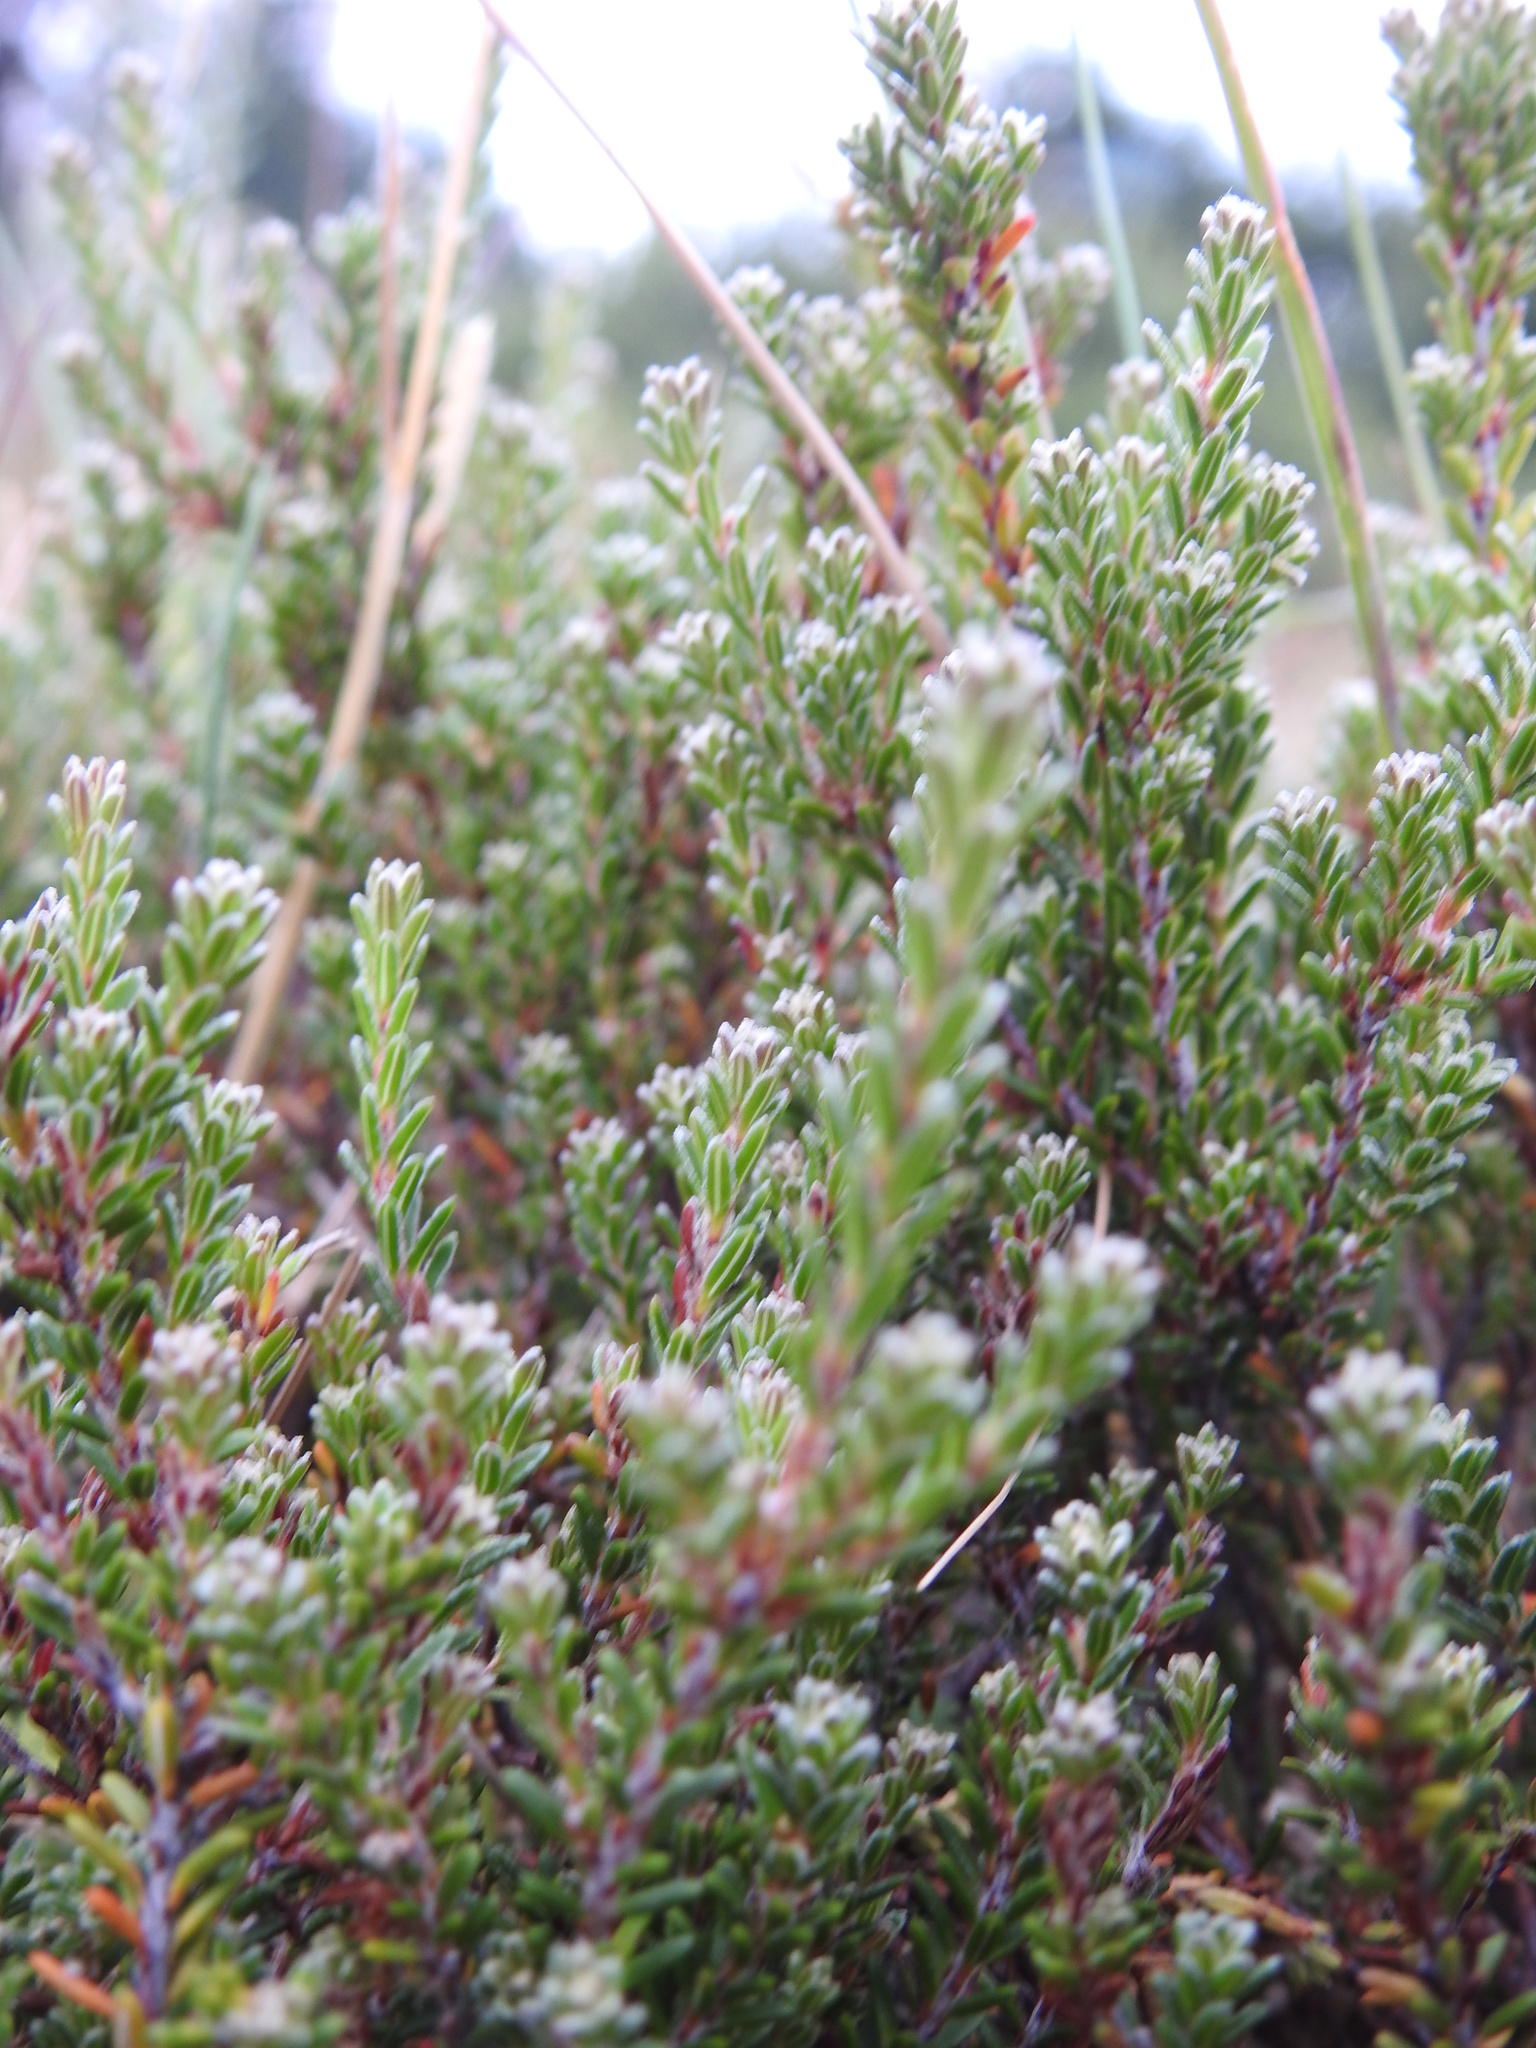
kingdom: Plantae
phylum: Tracheophyta
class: Magnoliopsida
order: Ericales
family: Ericaceae
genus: Empetrum
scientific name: Empetrum rubrum
